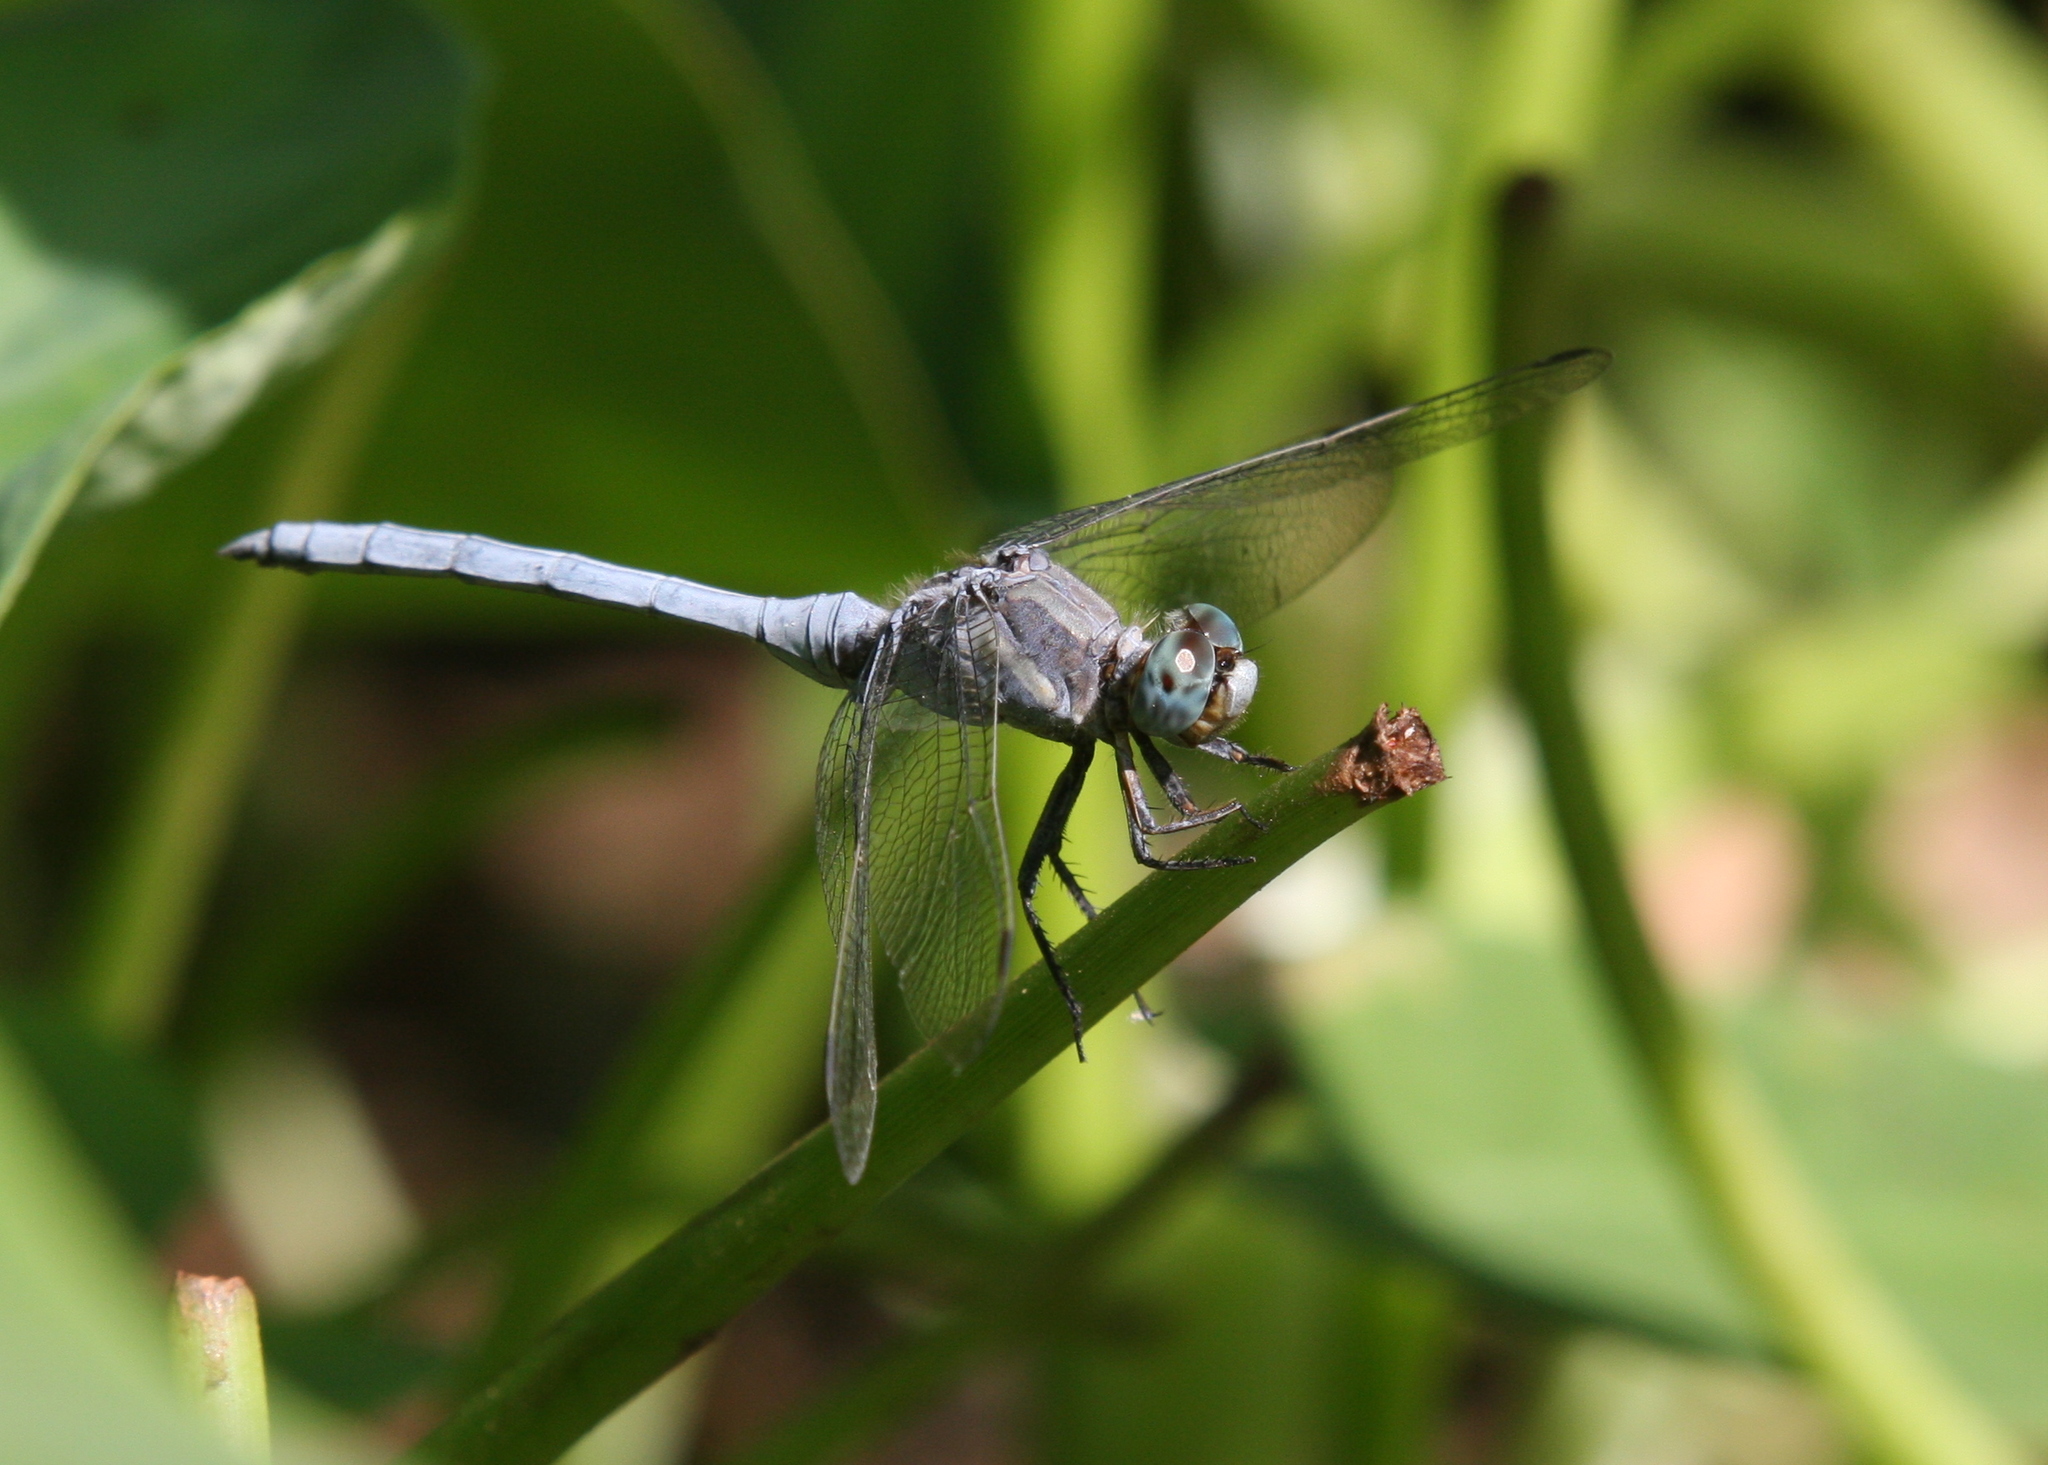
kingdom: Animalia
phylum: Arthropoda
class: Insecta
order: Odonata
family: Libellulidae
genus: Orthetrum
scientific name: Orthetrum chrysostigma
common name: Epaulet skimmer
